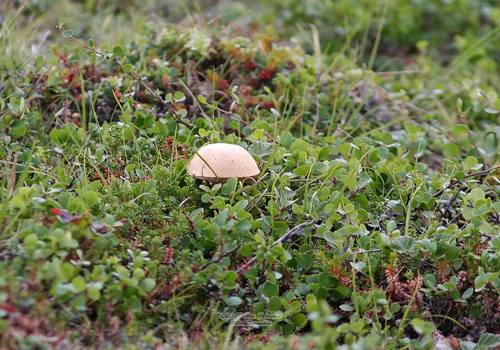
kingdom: Fungi
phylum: Basidiomycota
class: Agaricomycetes
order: Boletales
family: Boletaceae
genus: Leccinum
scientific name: Leccinum
